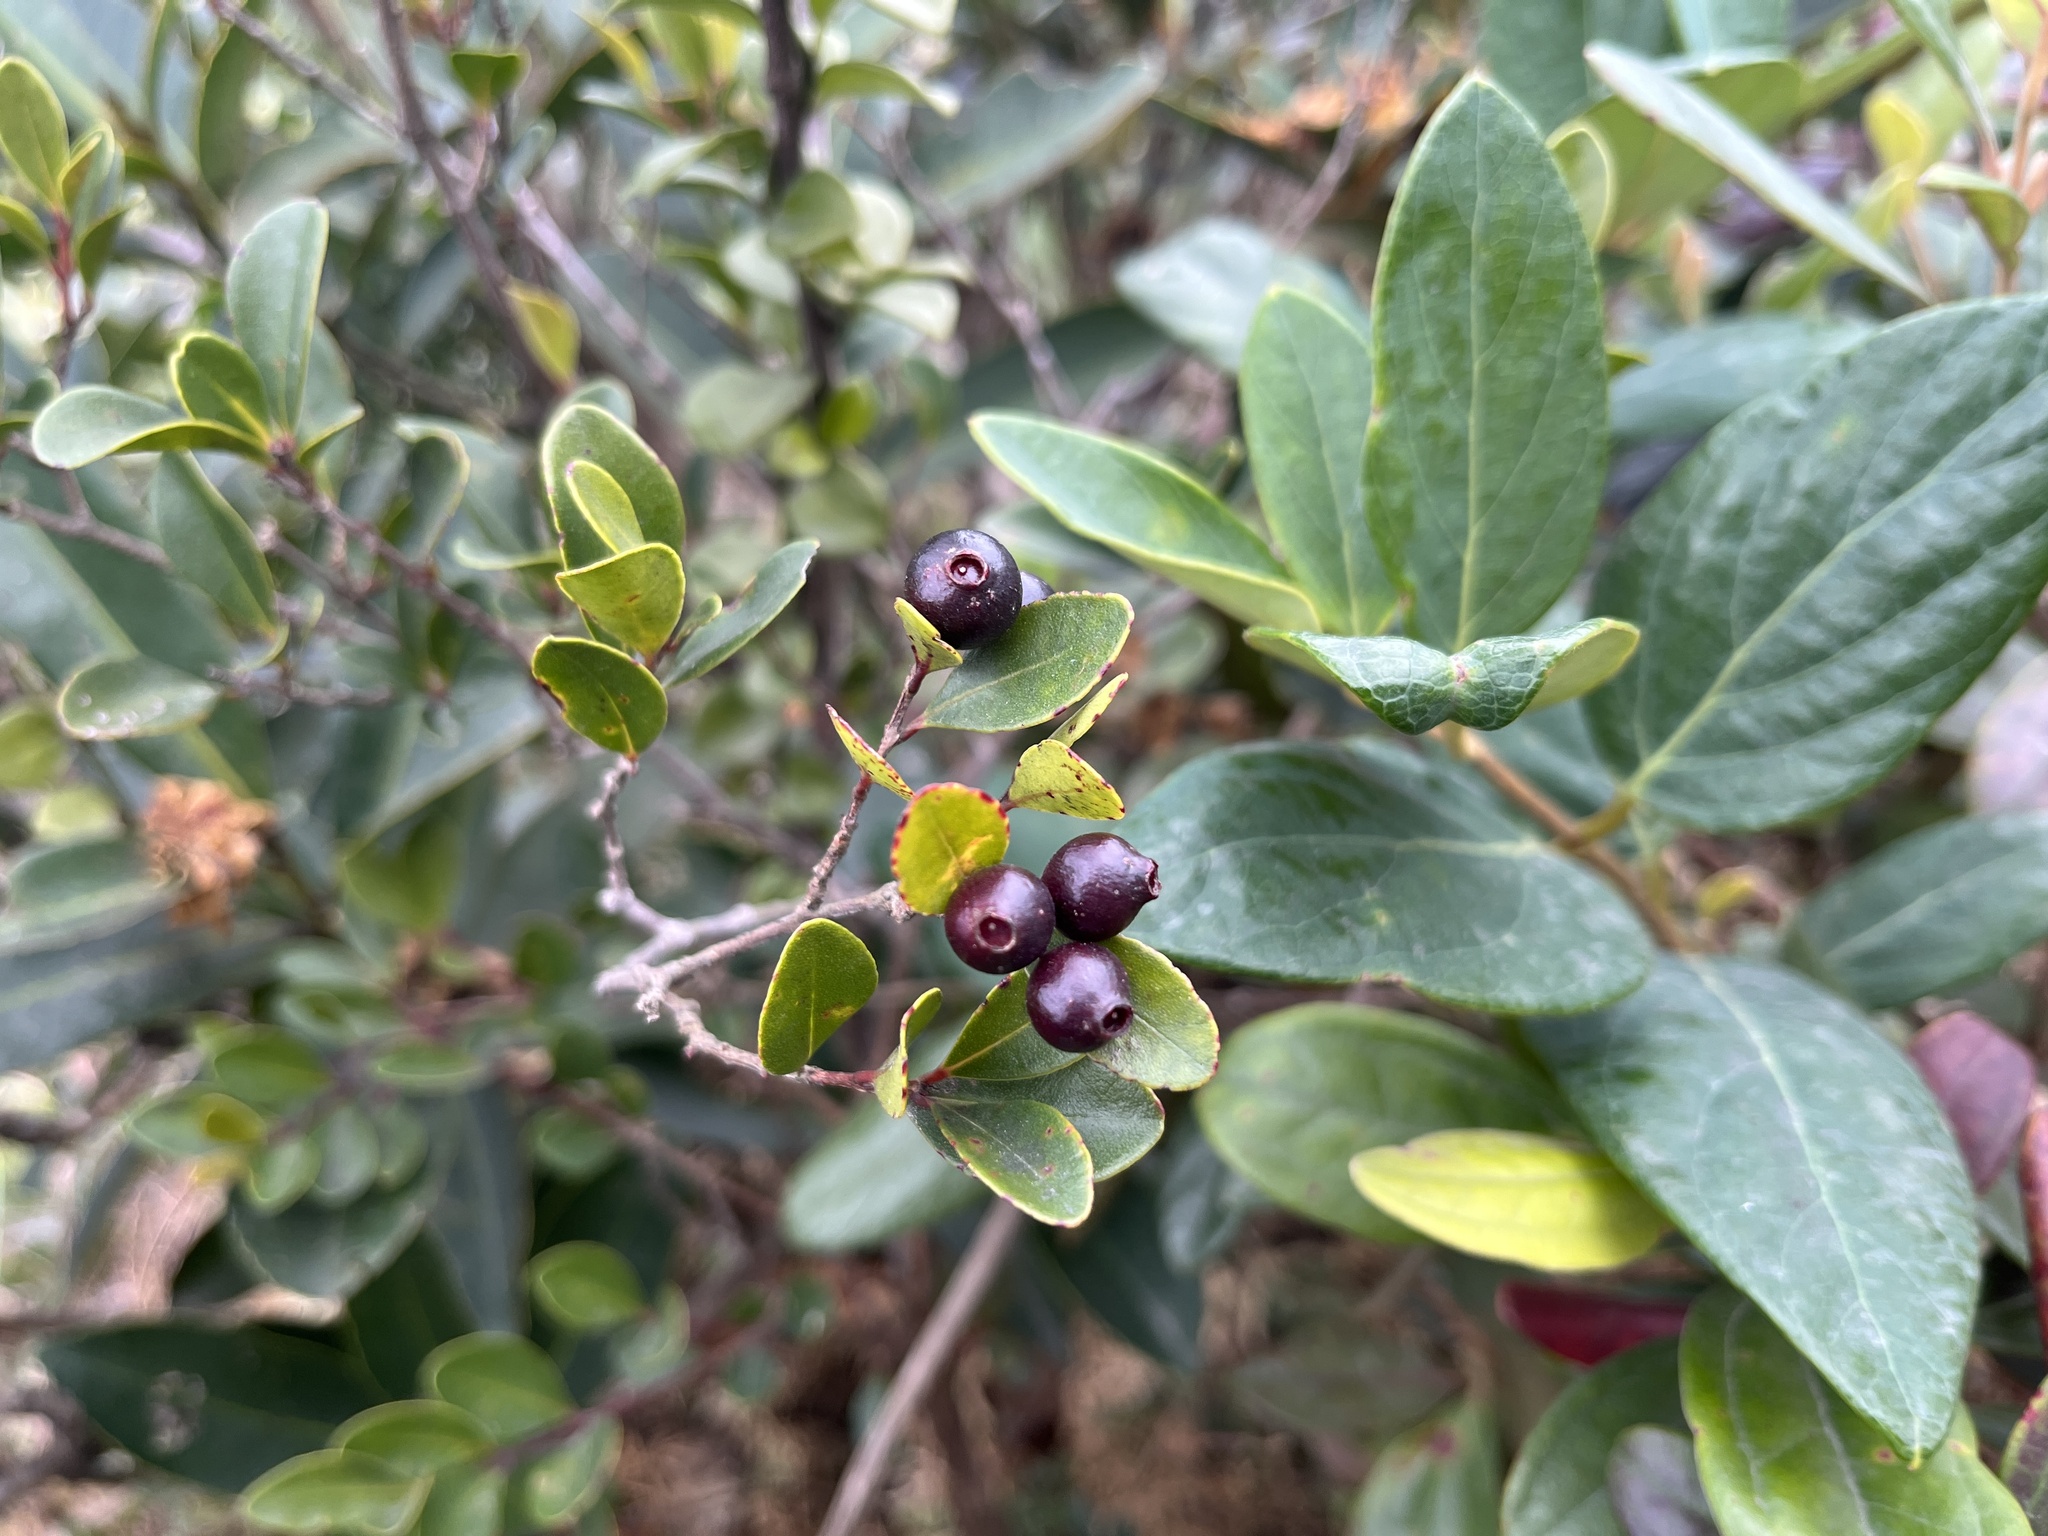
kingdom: Plantae
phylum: Tracheophyta
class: Magnoliopsida
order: Myrtales
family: Myrtaceae
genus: Syzygium
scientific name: Syzygium buxifolium
